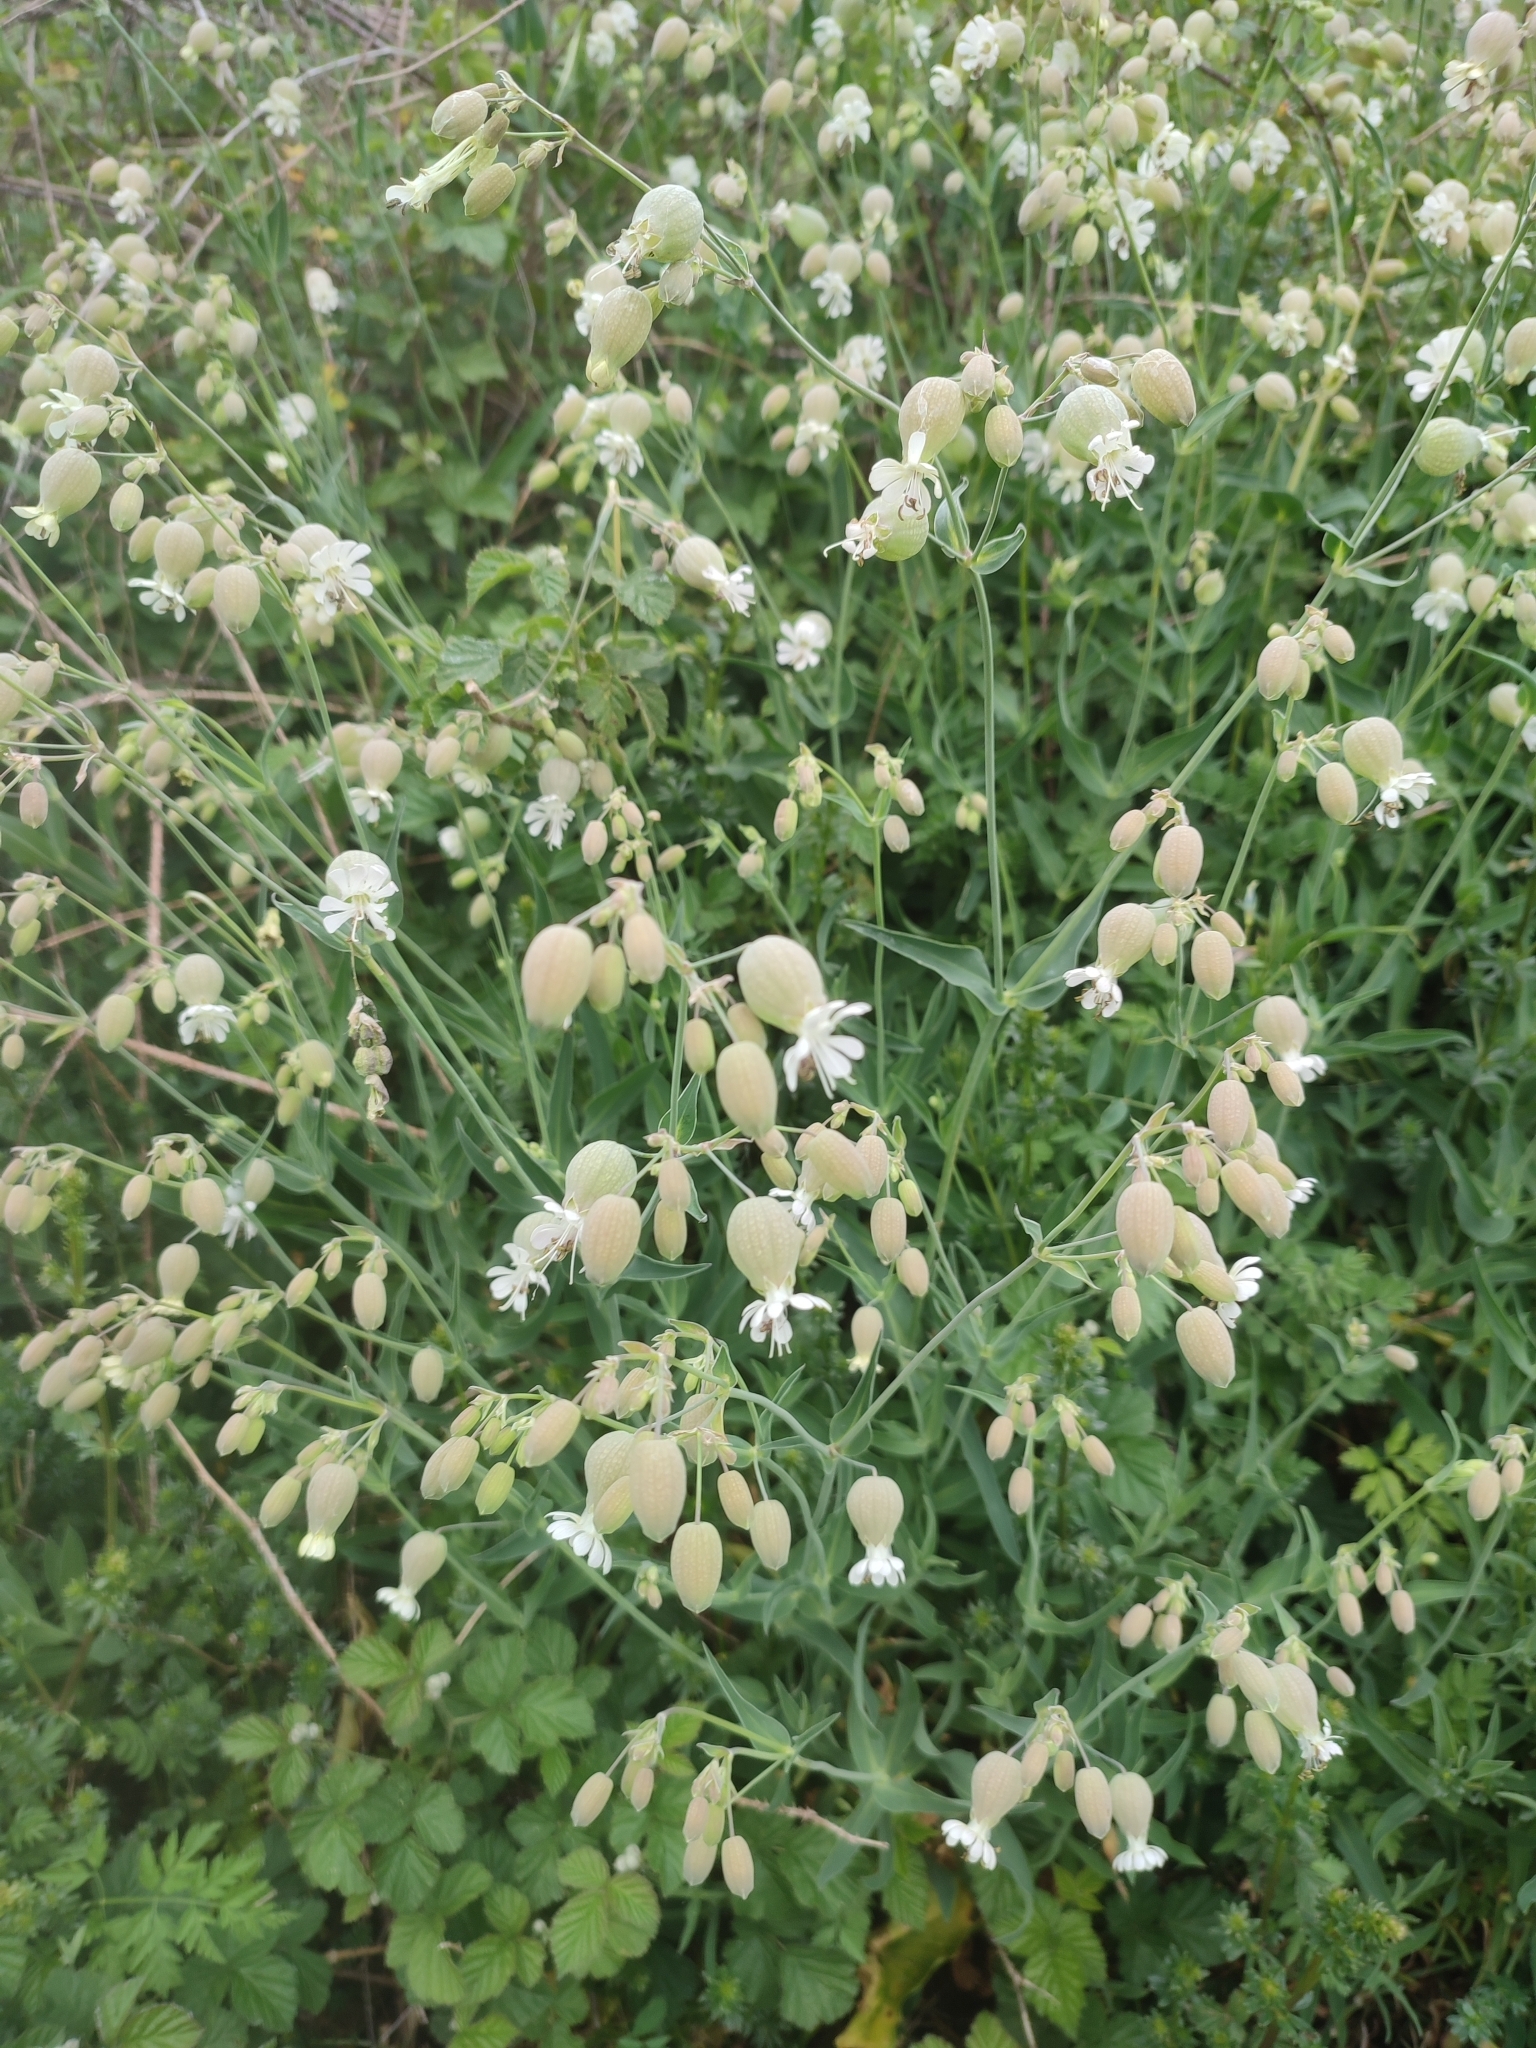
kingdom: Plantae
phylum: Tracheophyta
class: Magnoliopsida
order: Caryophyllales
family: Caryophyllaceae
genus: Silene
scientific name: Silene vulgaris
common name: Bladder campion
